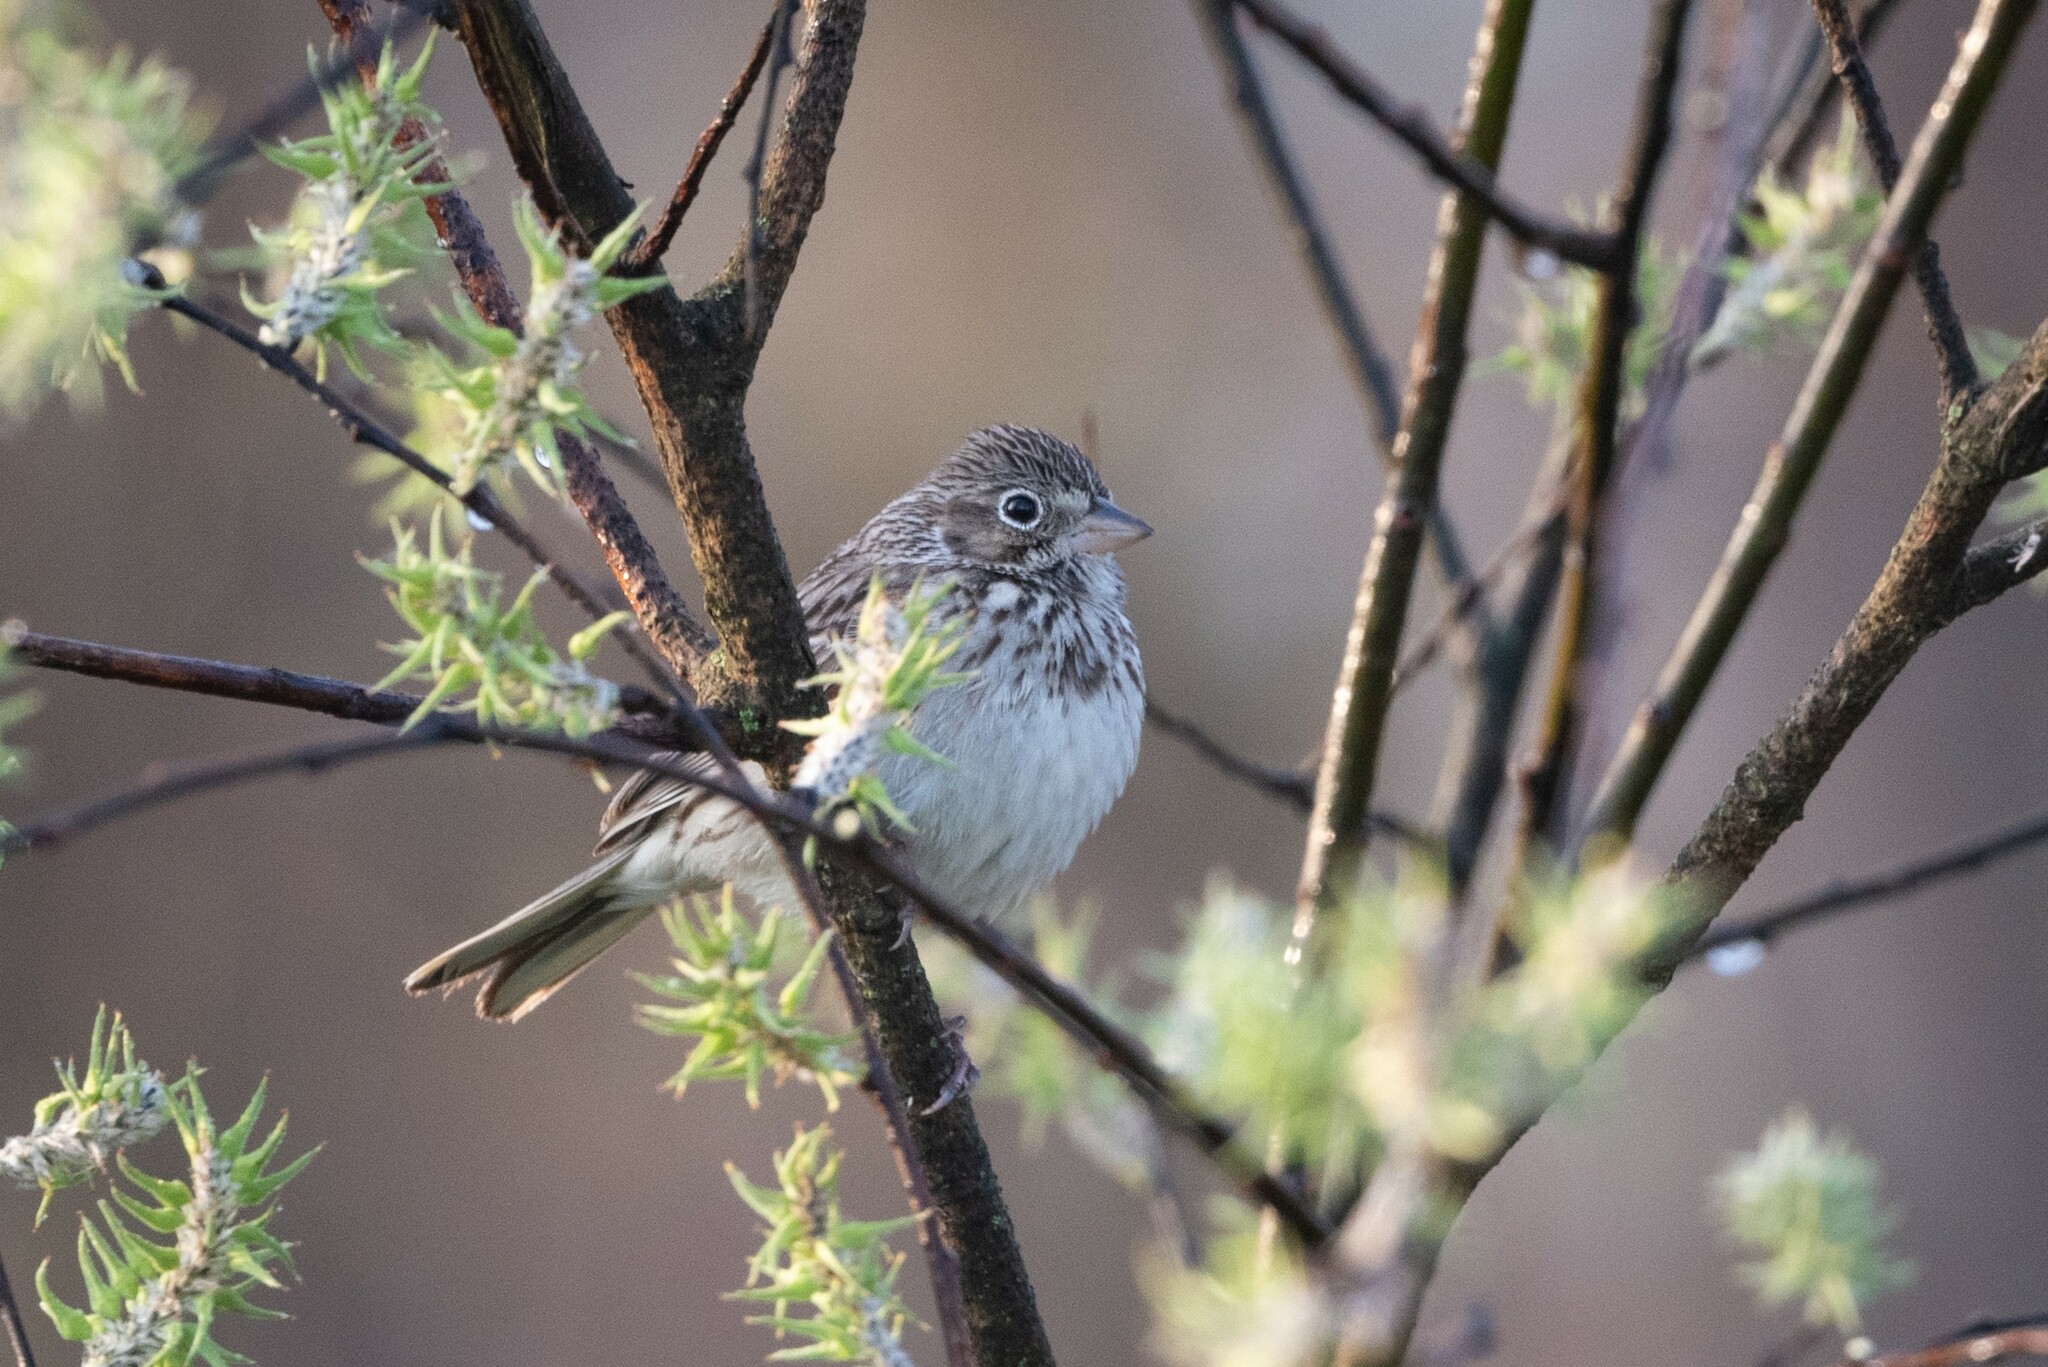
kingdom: Animalia
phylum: Chordata
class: Aves
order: Passeriformes
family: Passerellidae
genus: Pooecetes
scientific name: Pooecetes gramineus
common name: Vesper sparrow
